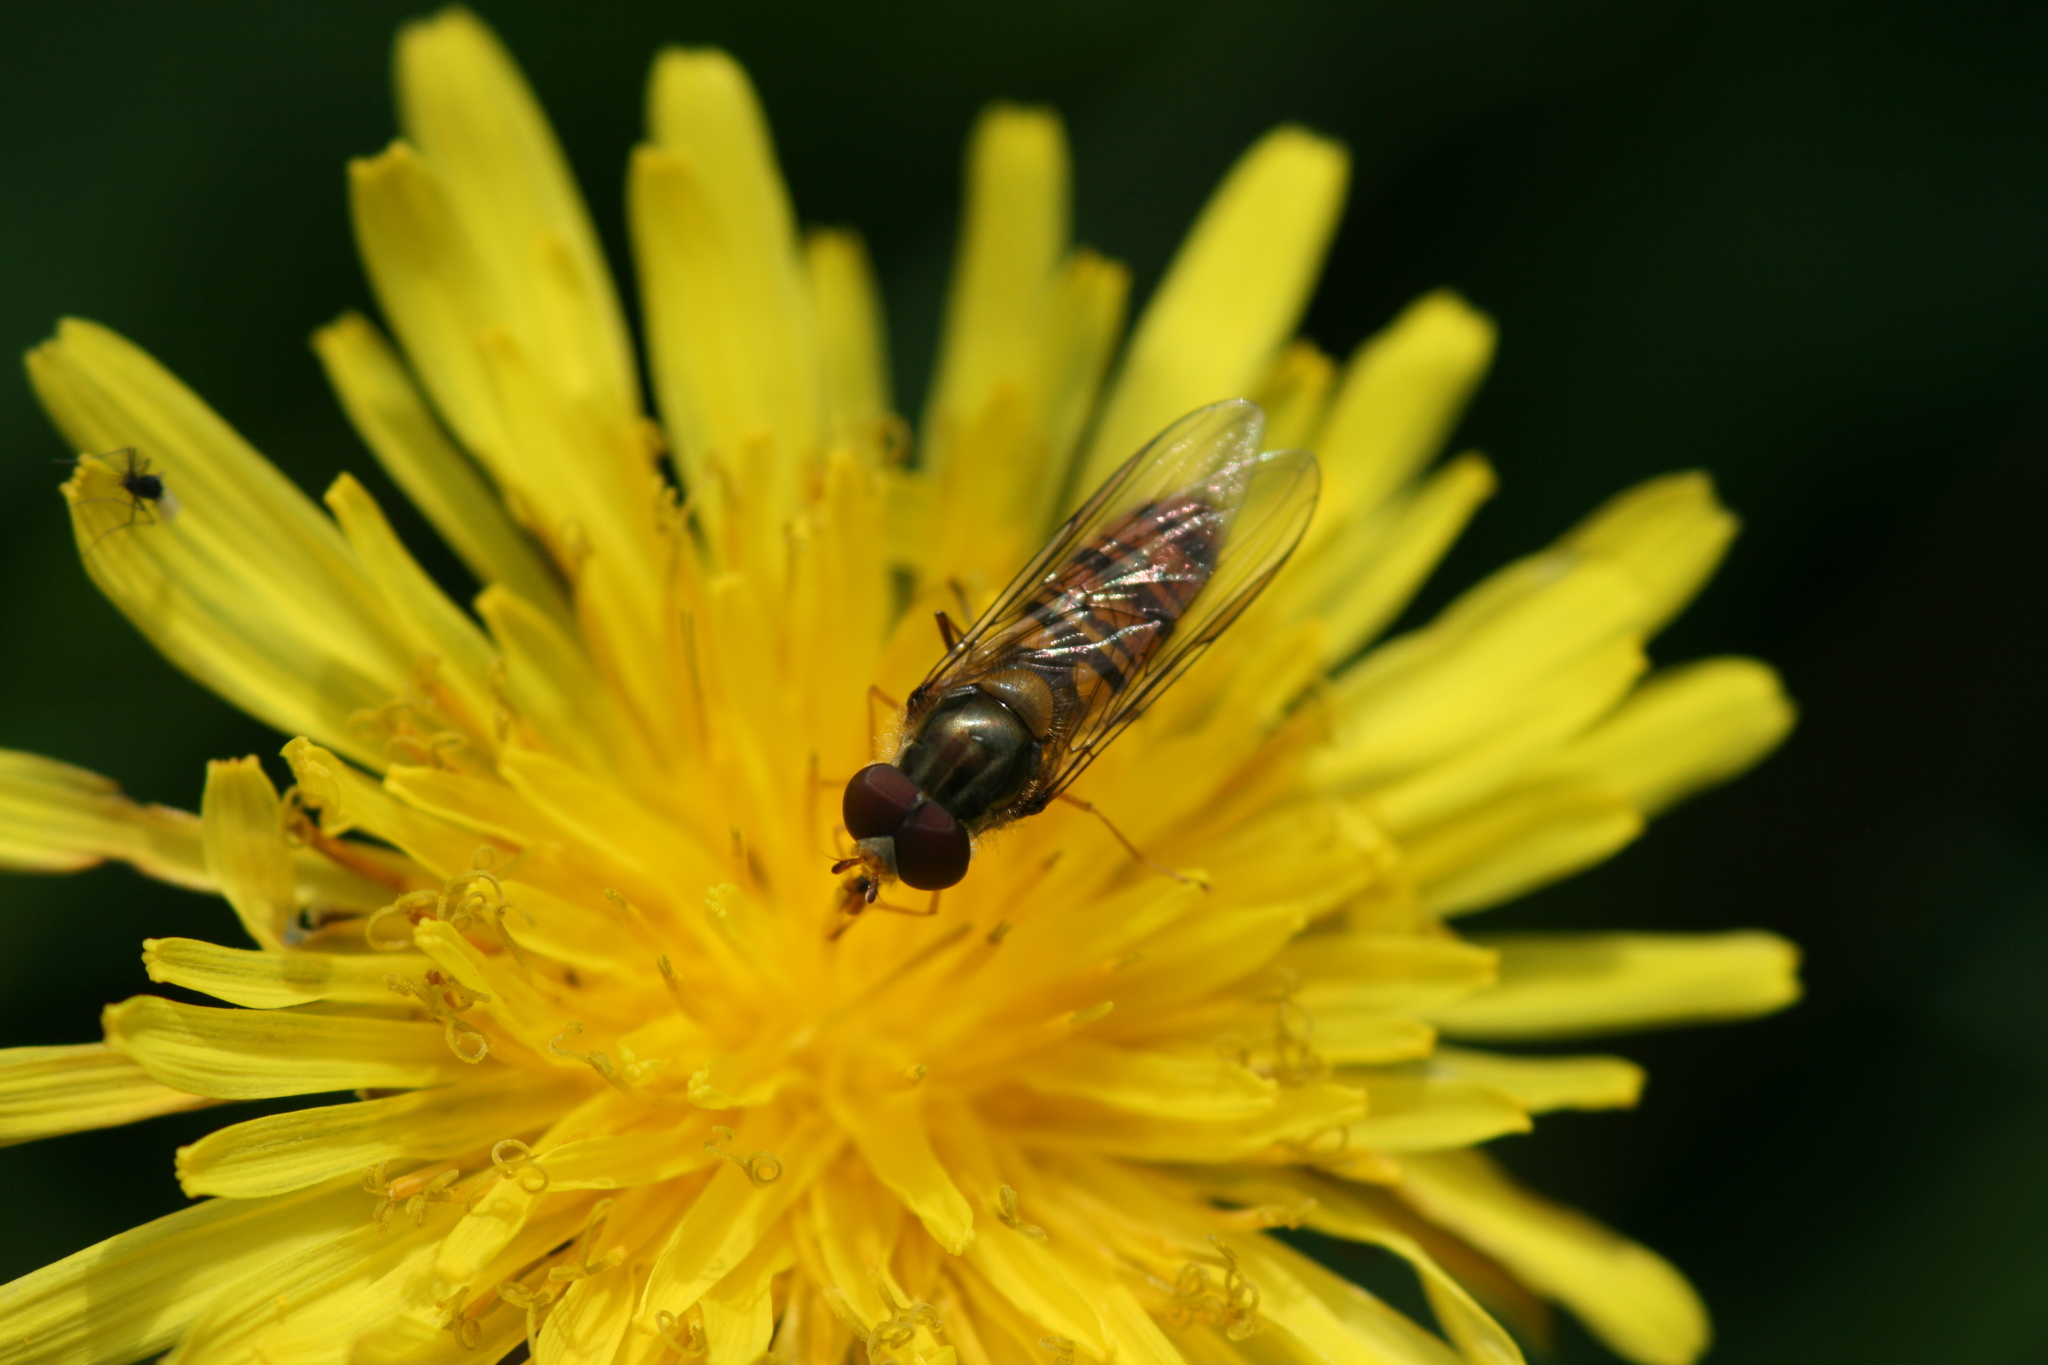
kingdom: Animalia
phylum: Arthropoda
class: Insecta
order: Diptera
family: Syrphidae
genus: Episyrphus
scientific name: Episyrphus balteatus
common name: Marmalade hoverfly
